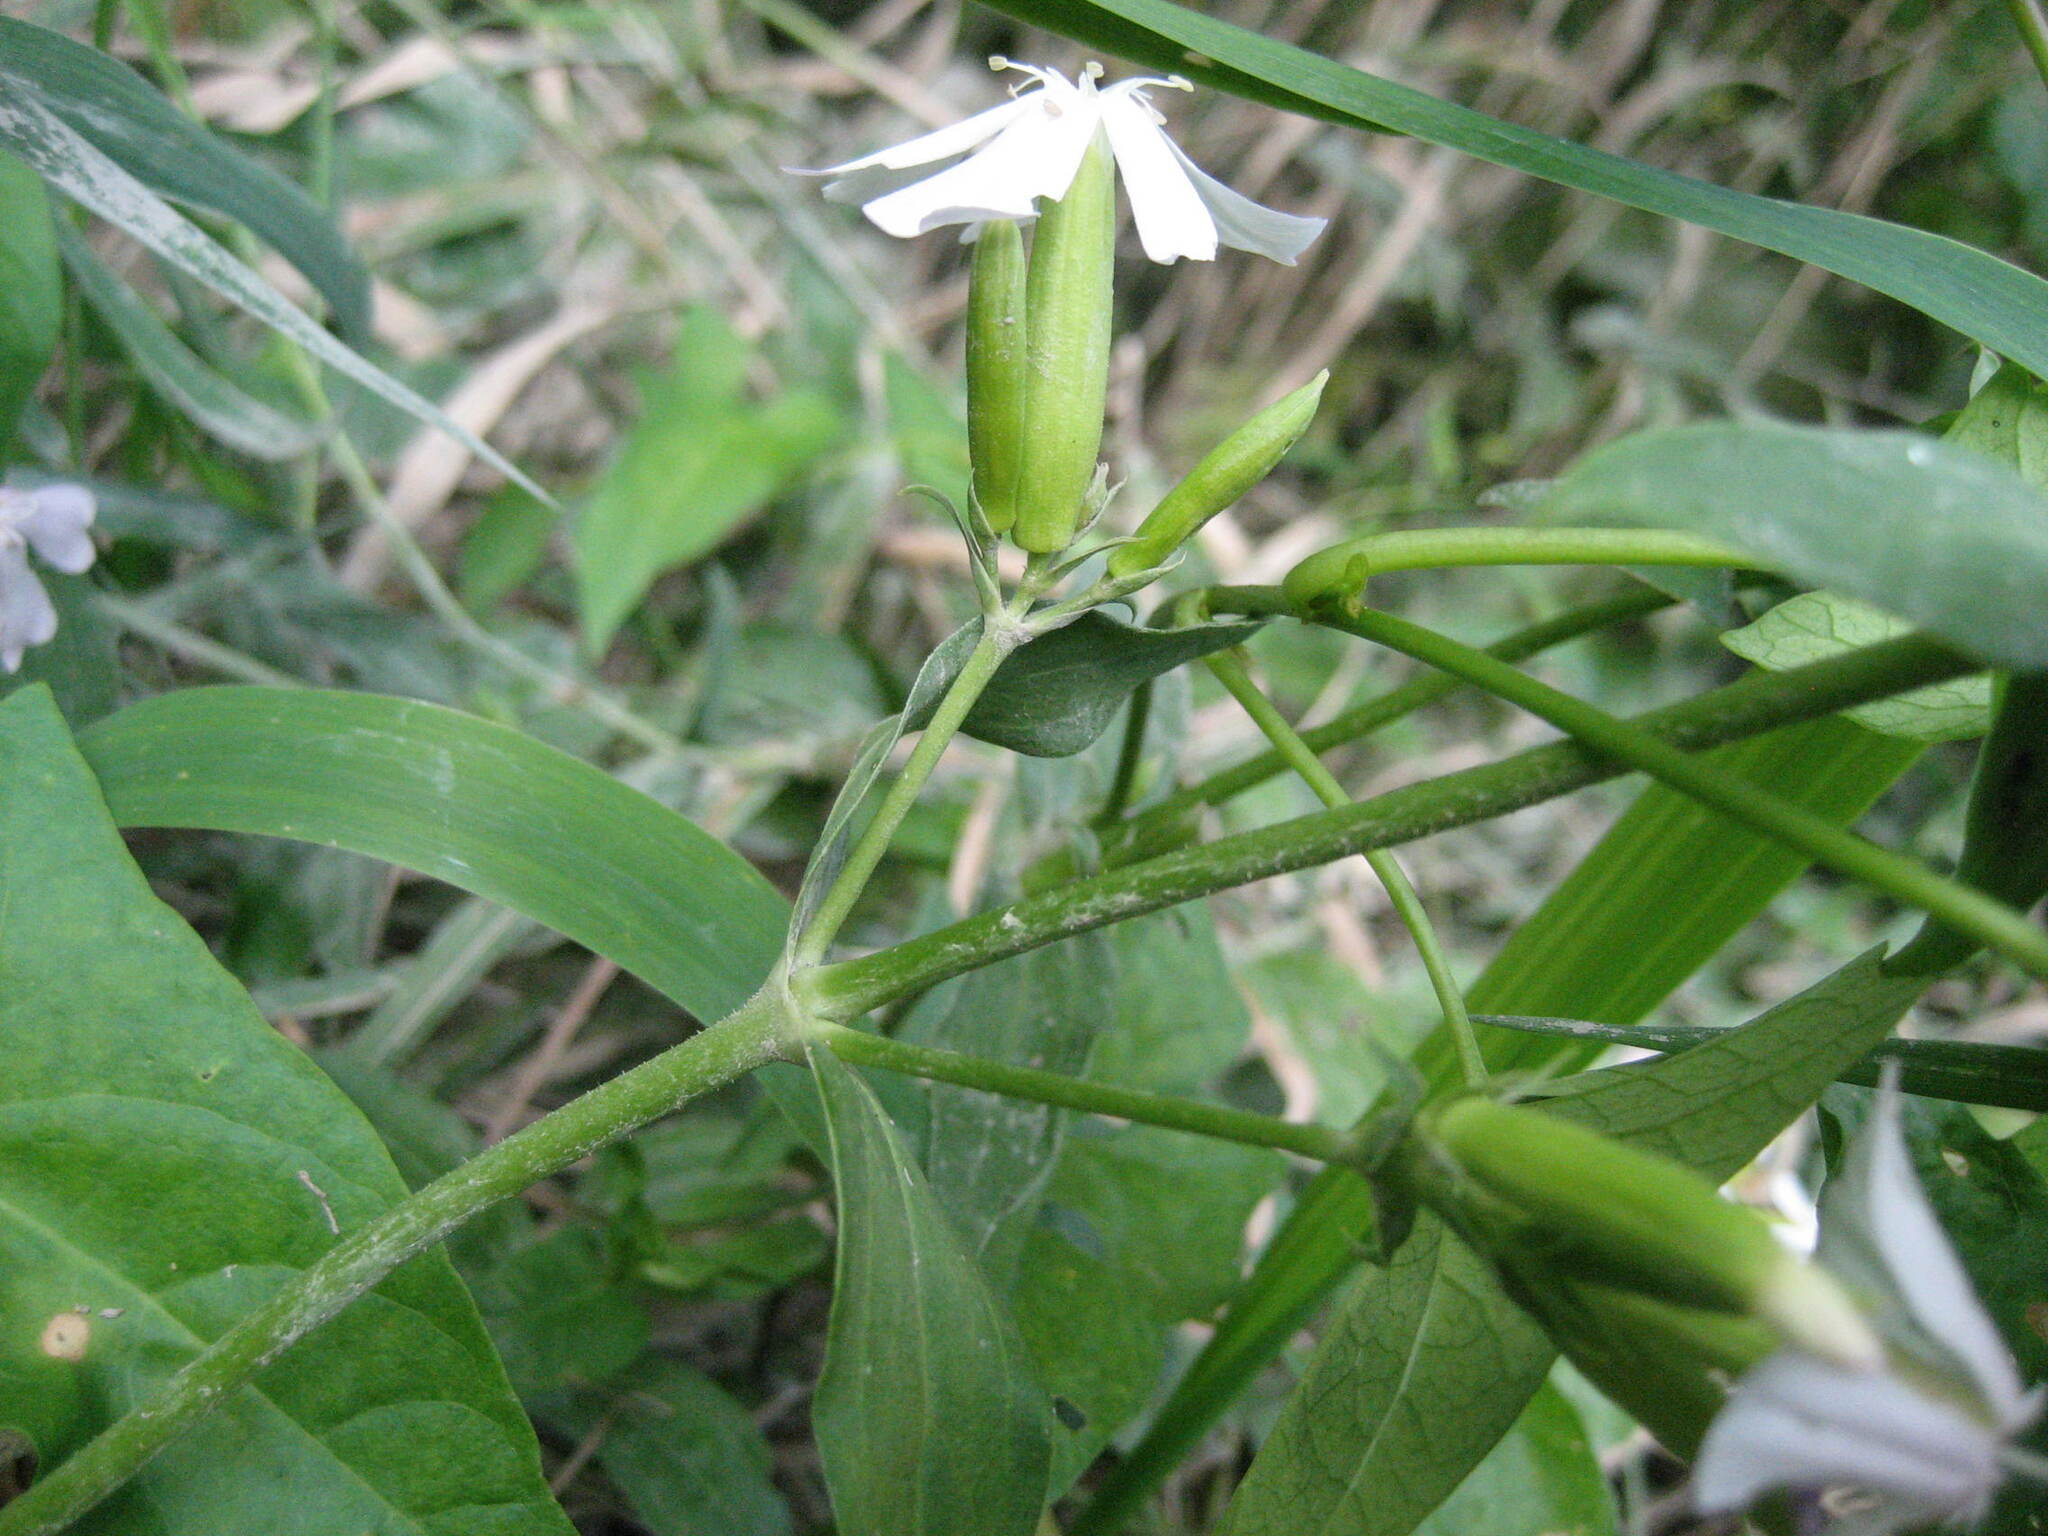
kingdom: Plantae
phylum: Tracheophyta
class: Magnoliopsida
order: Caryophyllales
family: Caryophyllaceae
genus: Saponaria
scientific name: Saponaria officinalis
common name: Soapwort
